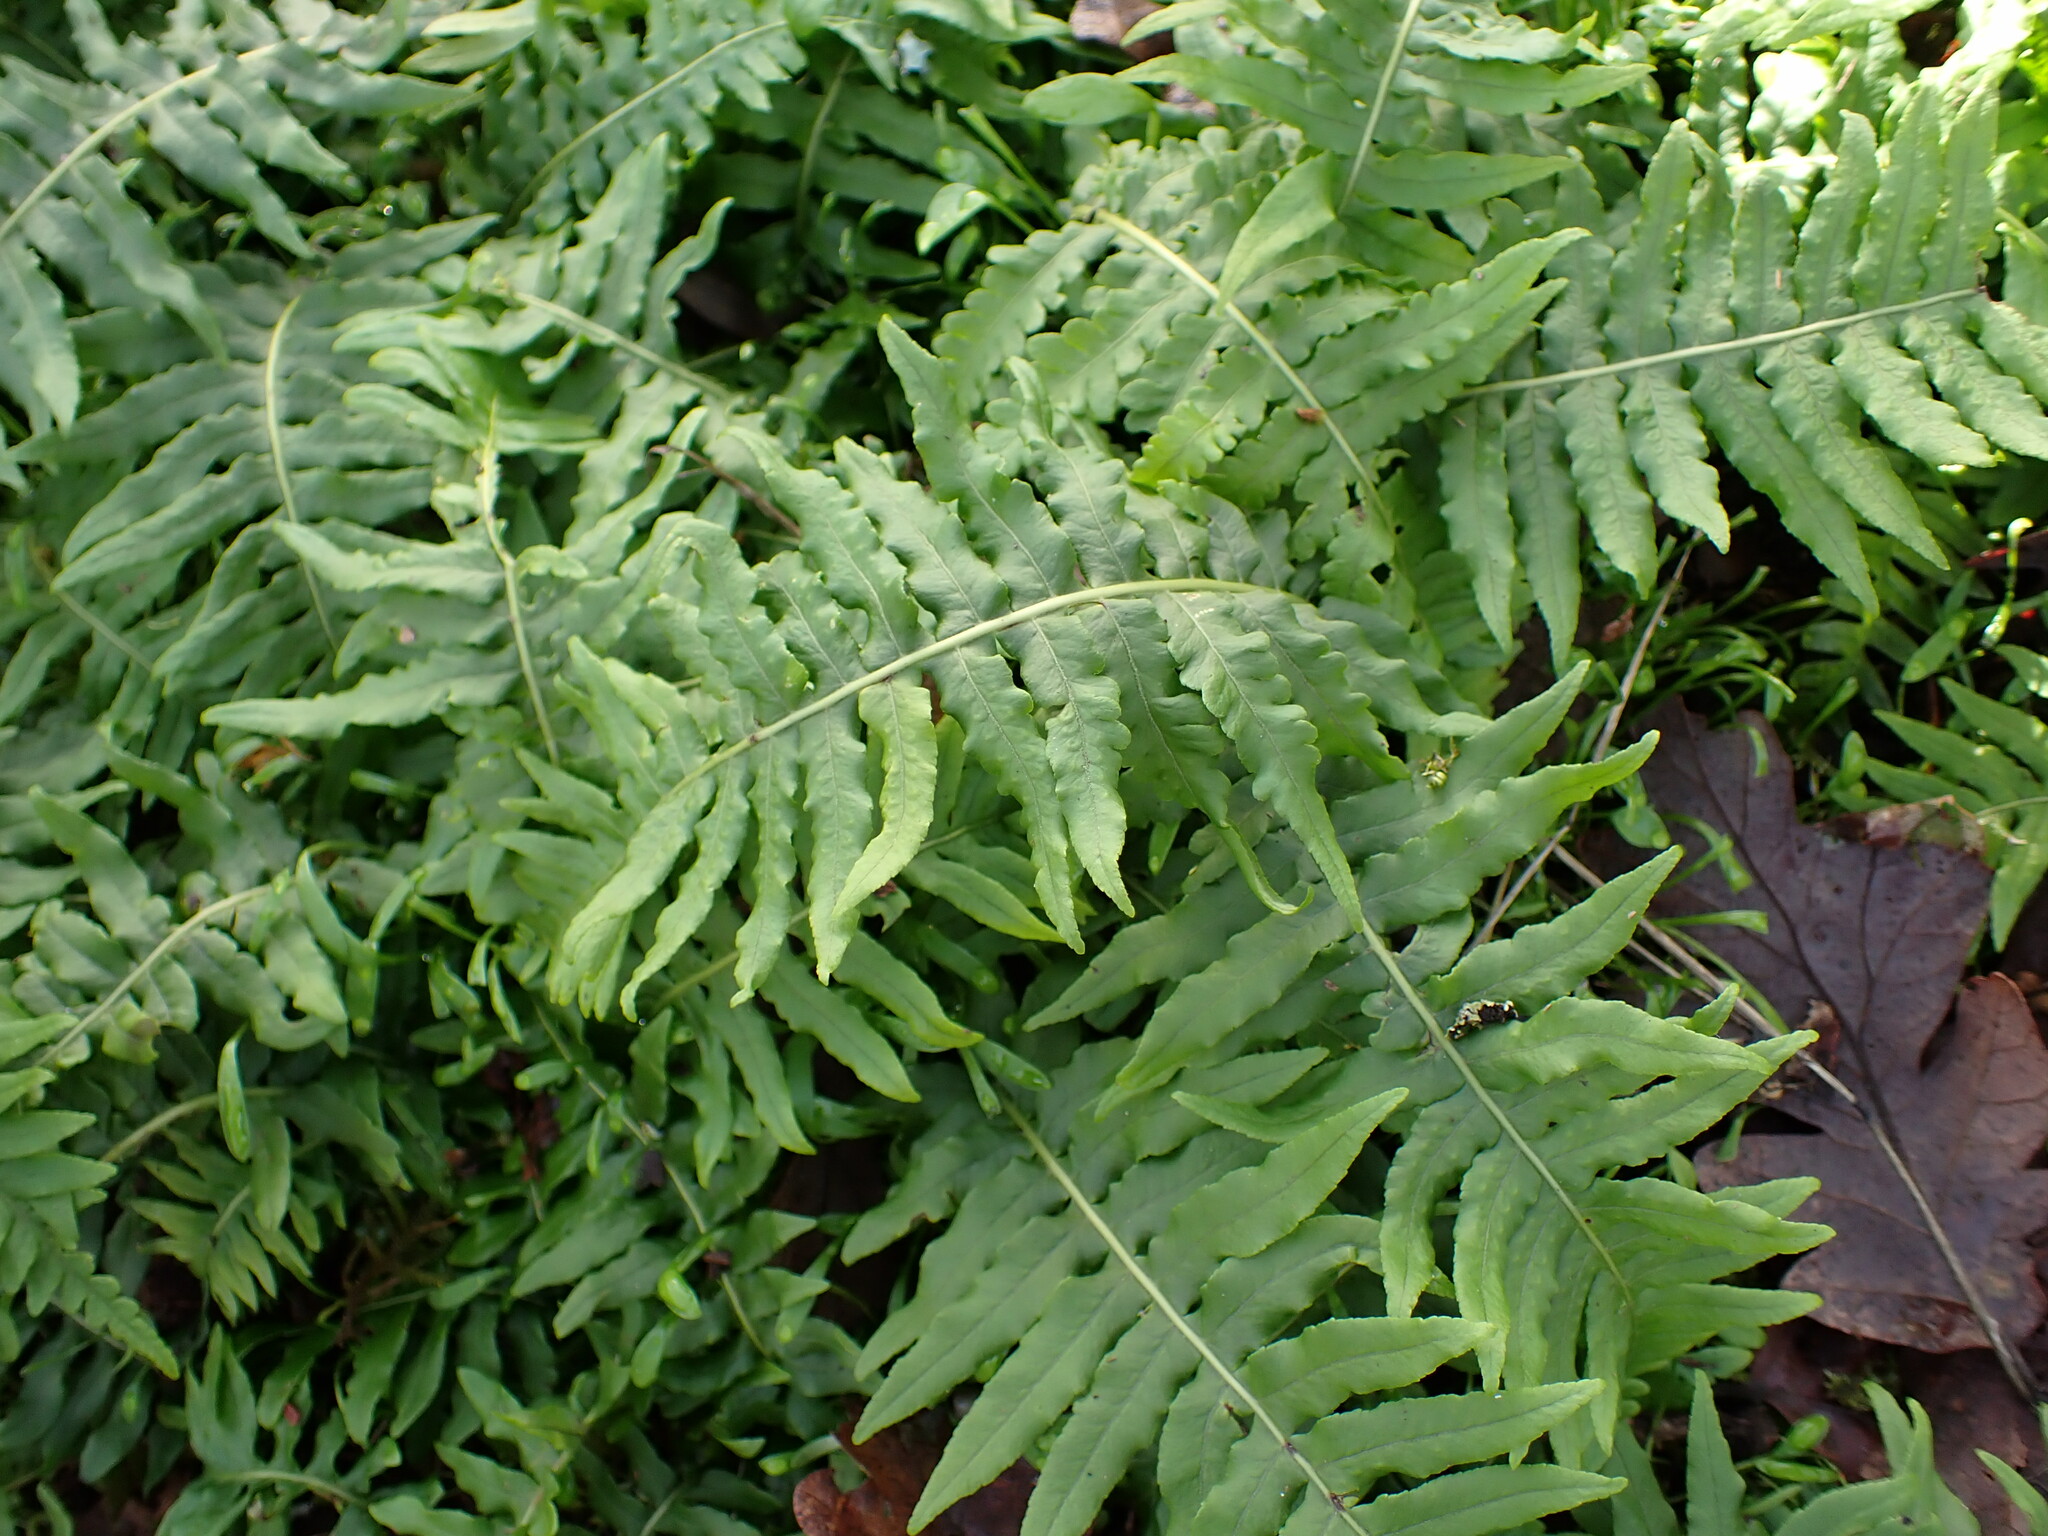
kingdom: Plantae
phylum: Tracheophyta
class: Polypodiopsida
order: Polypodiales
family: Polypodiaceae
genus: Polypodium
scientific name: Polypodium glycyrrhiza
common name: Licorice fern
